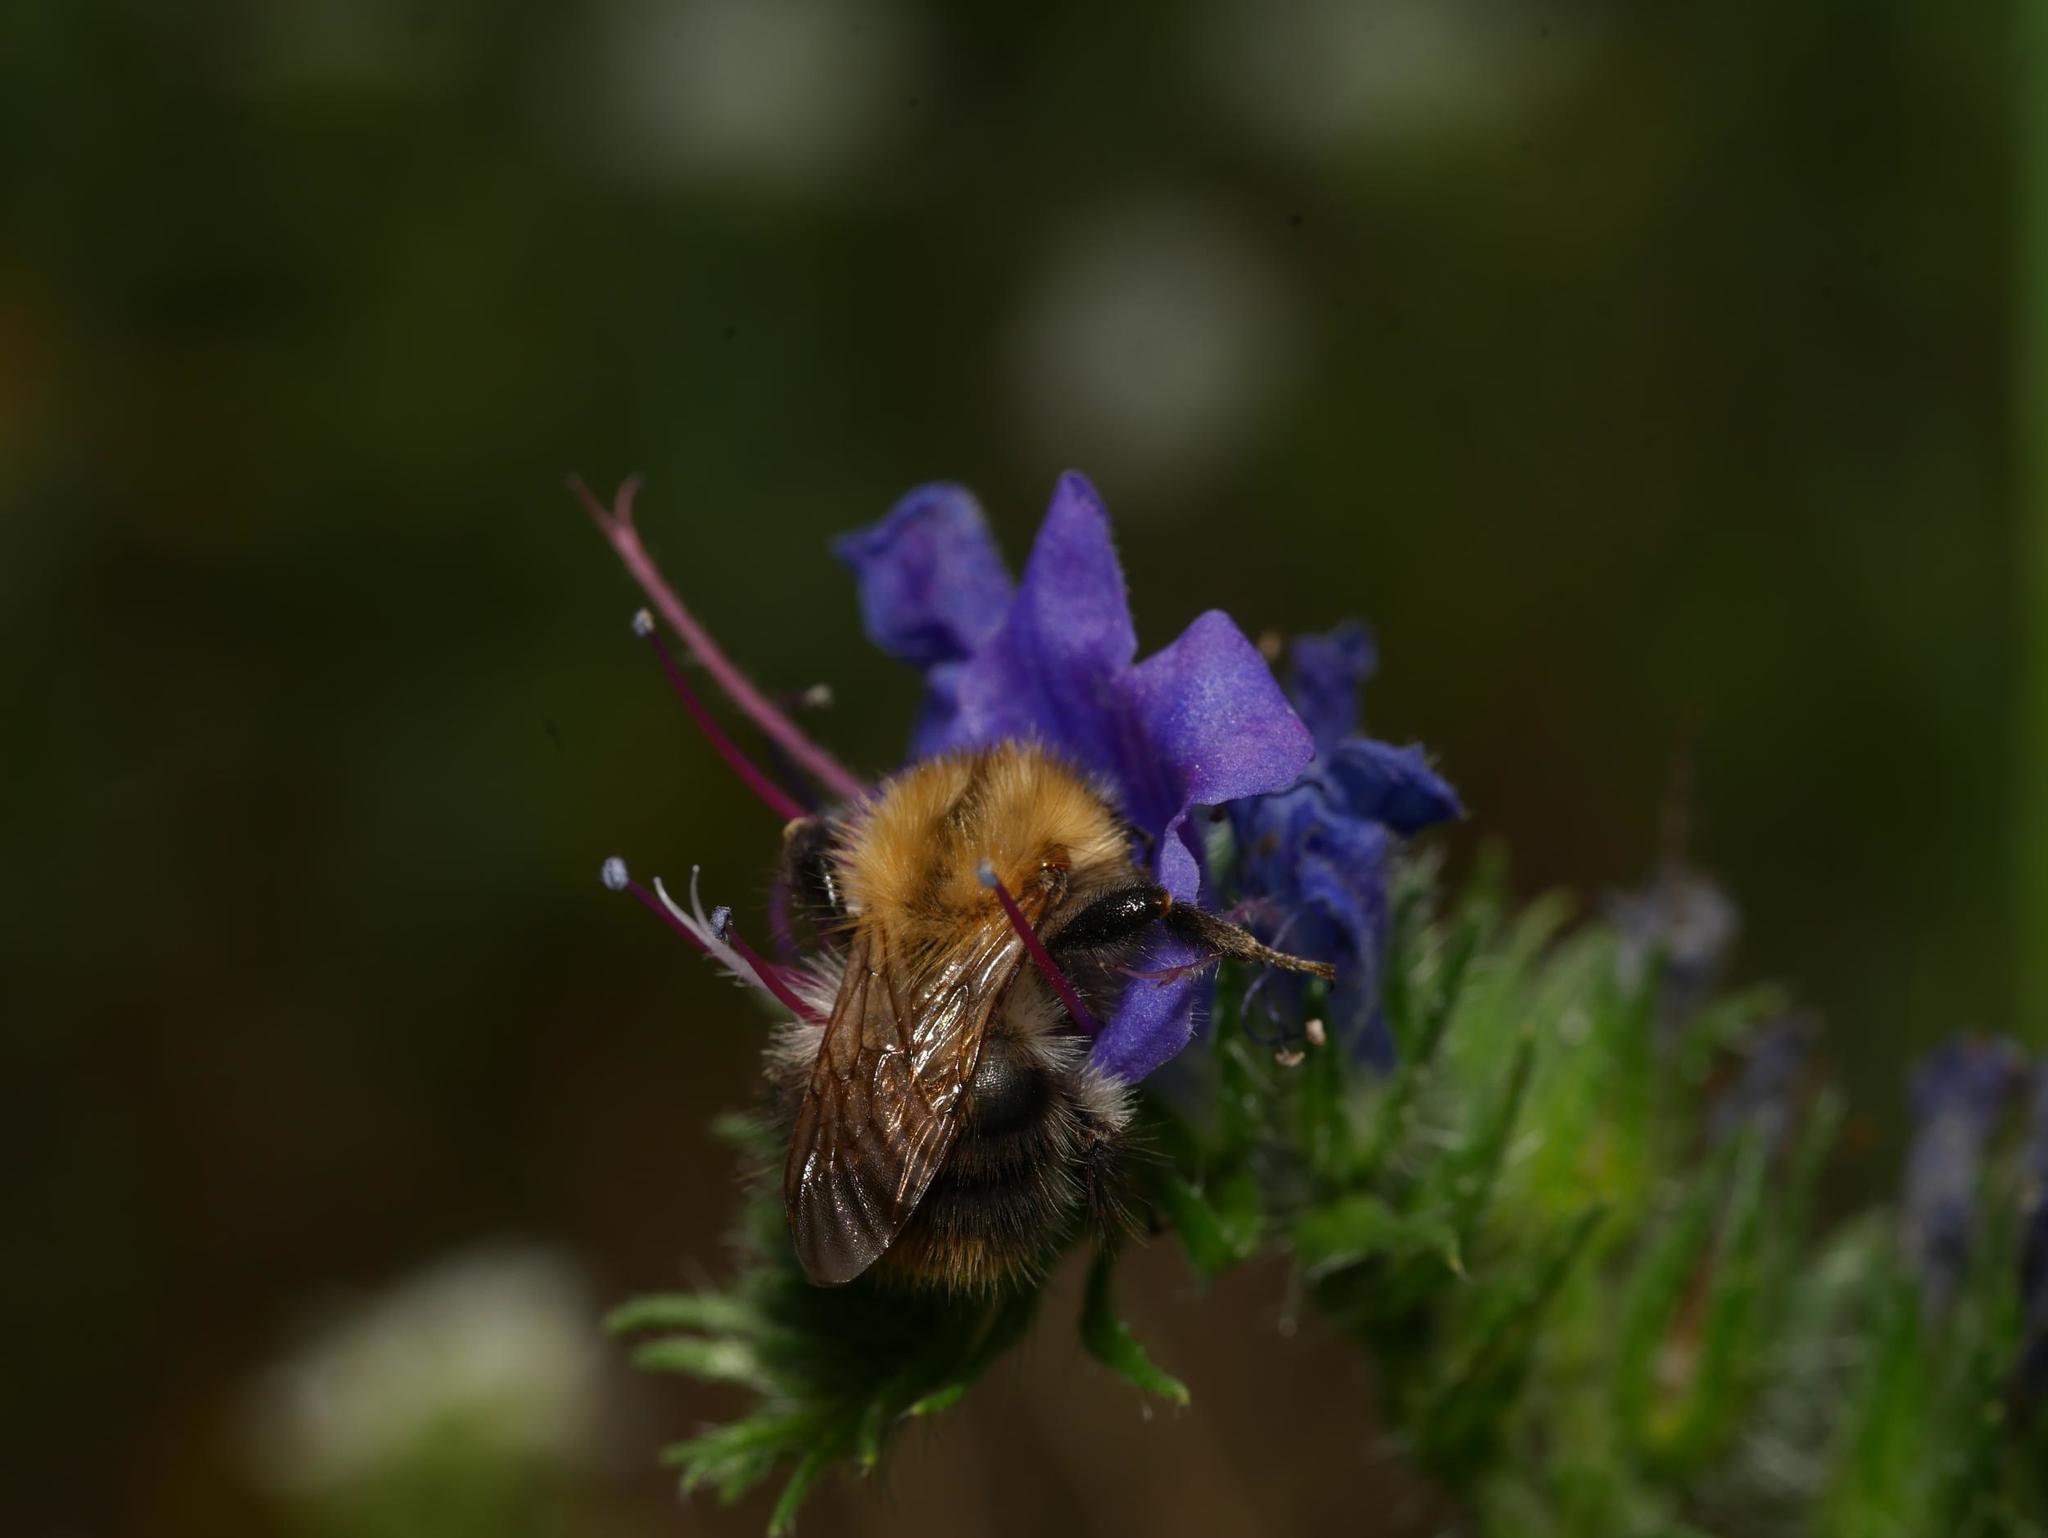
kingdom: Animalia
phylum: Arthropoda
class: Insecta
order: Hymenoptera
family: Apidae
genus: Bombus
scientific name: Bombus pascuorum
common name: Common carder bee
